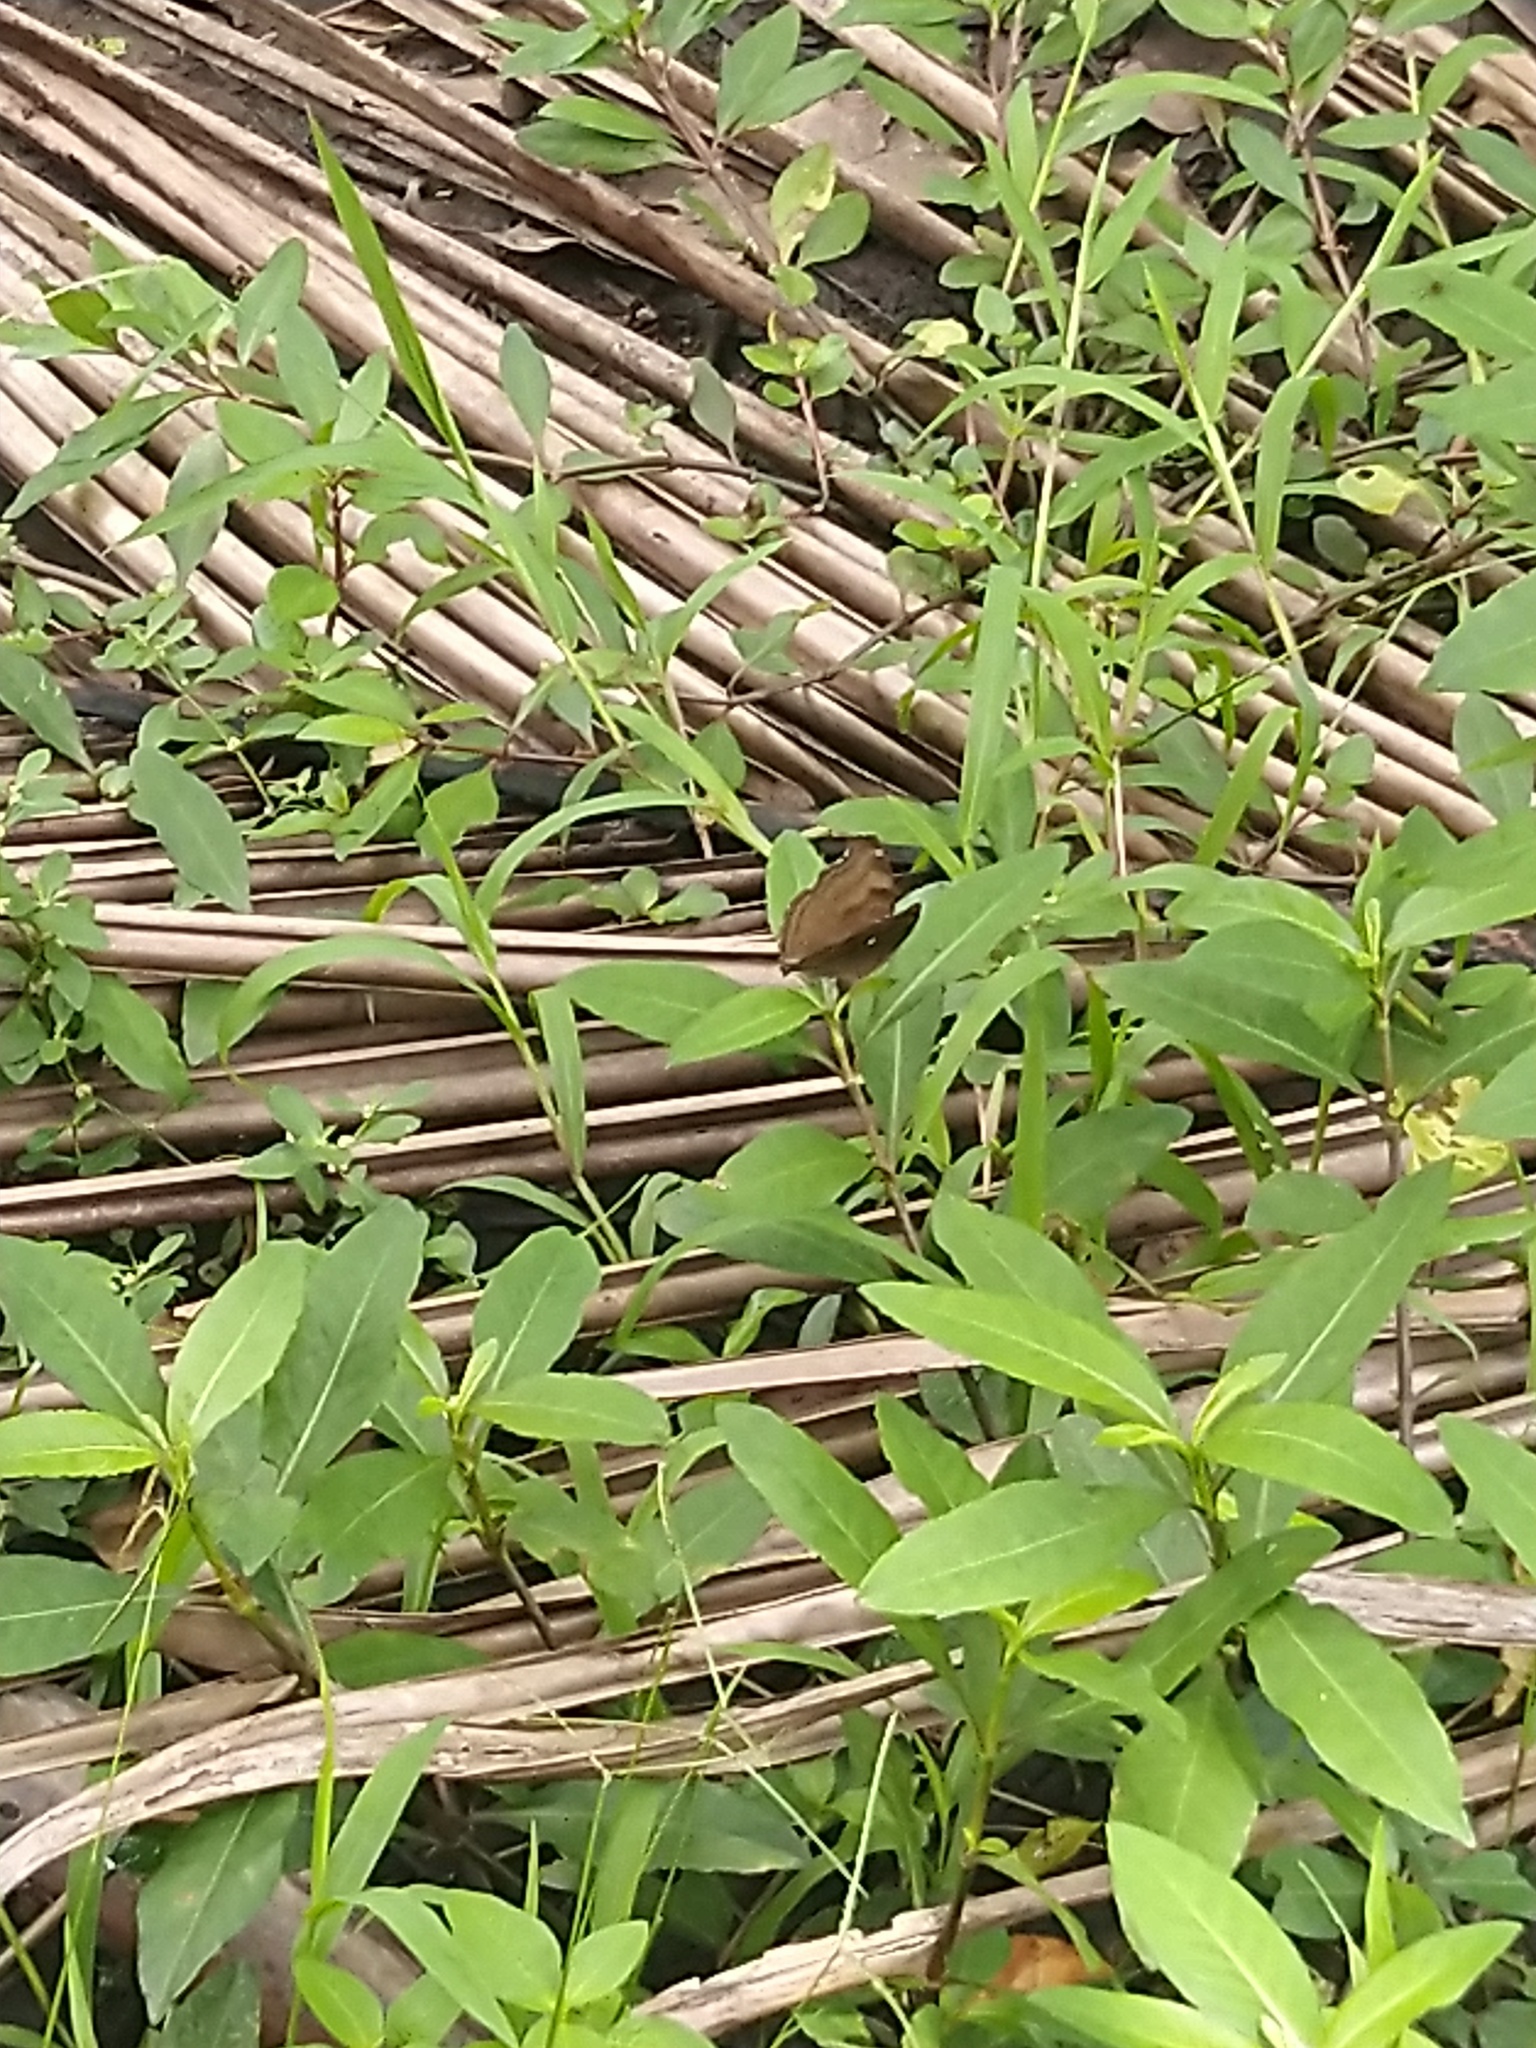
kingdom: Animalia
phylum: Arthropoda
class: Insecta
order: Lepidoptera
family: Nymphalidae
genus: Junonia
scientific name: Junonia iphita
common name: Chocolate pansy
